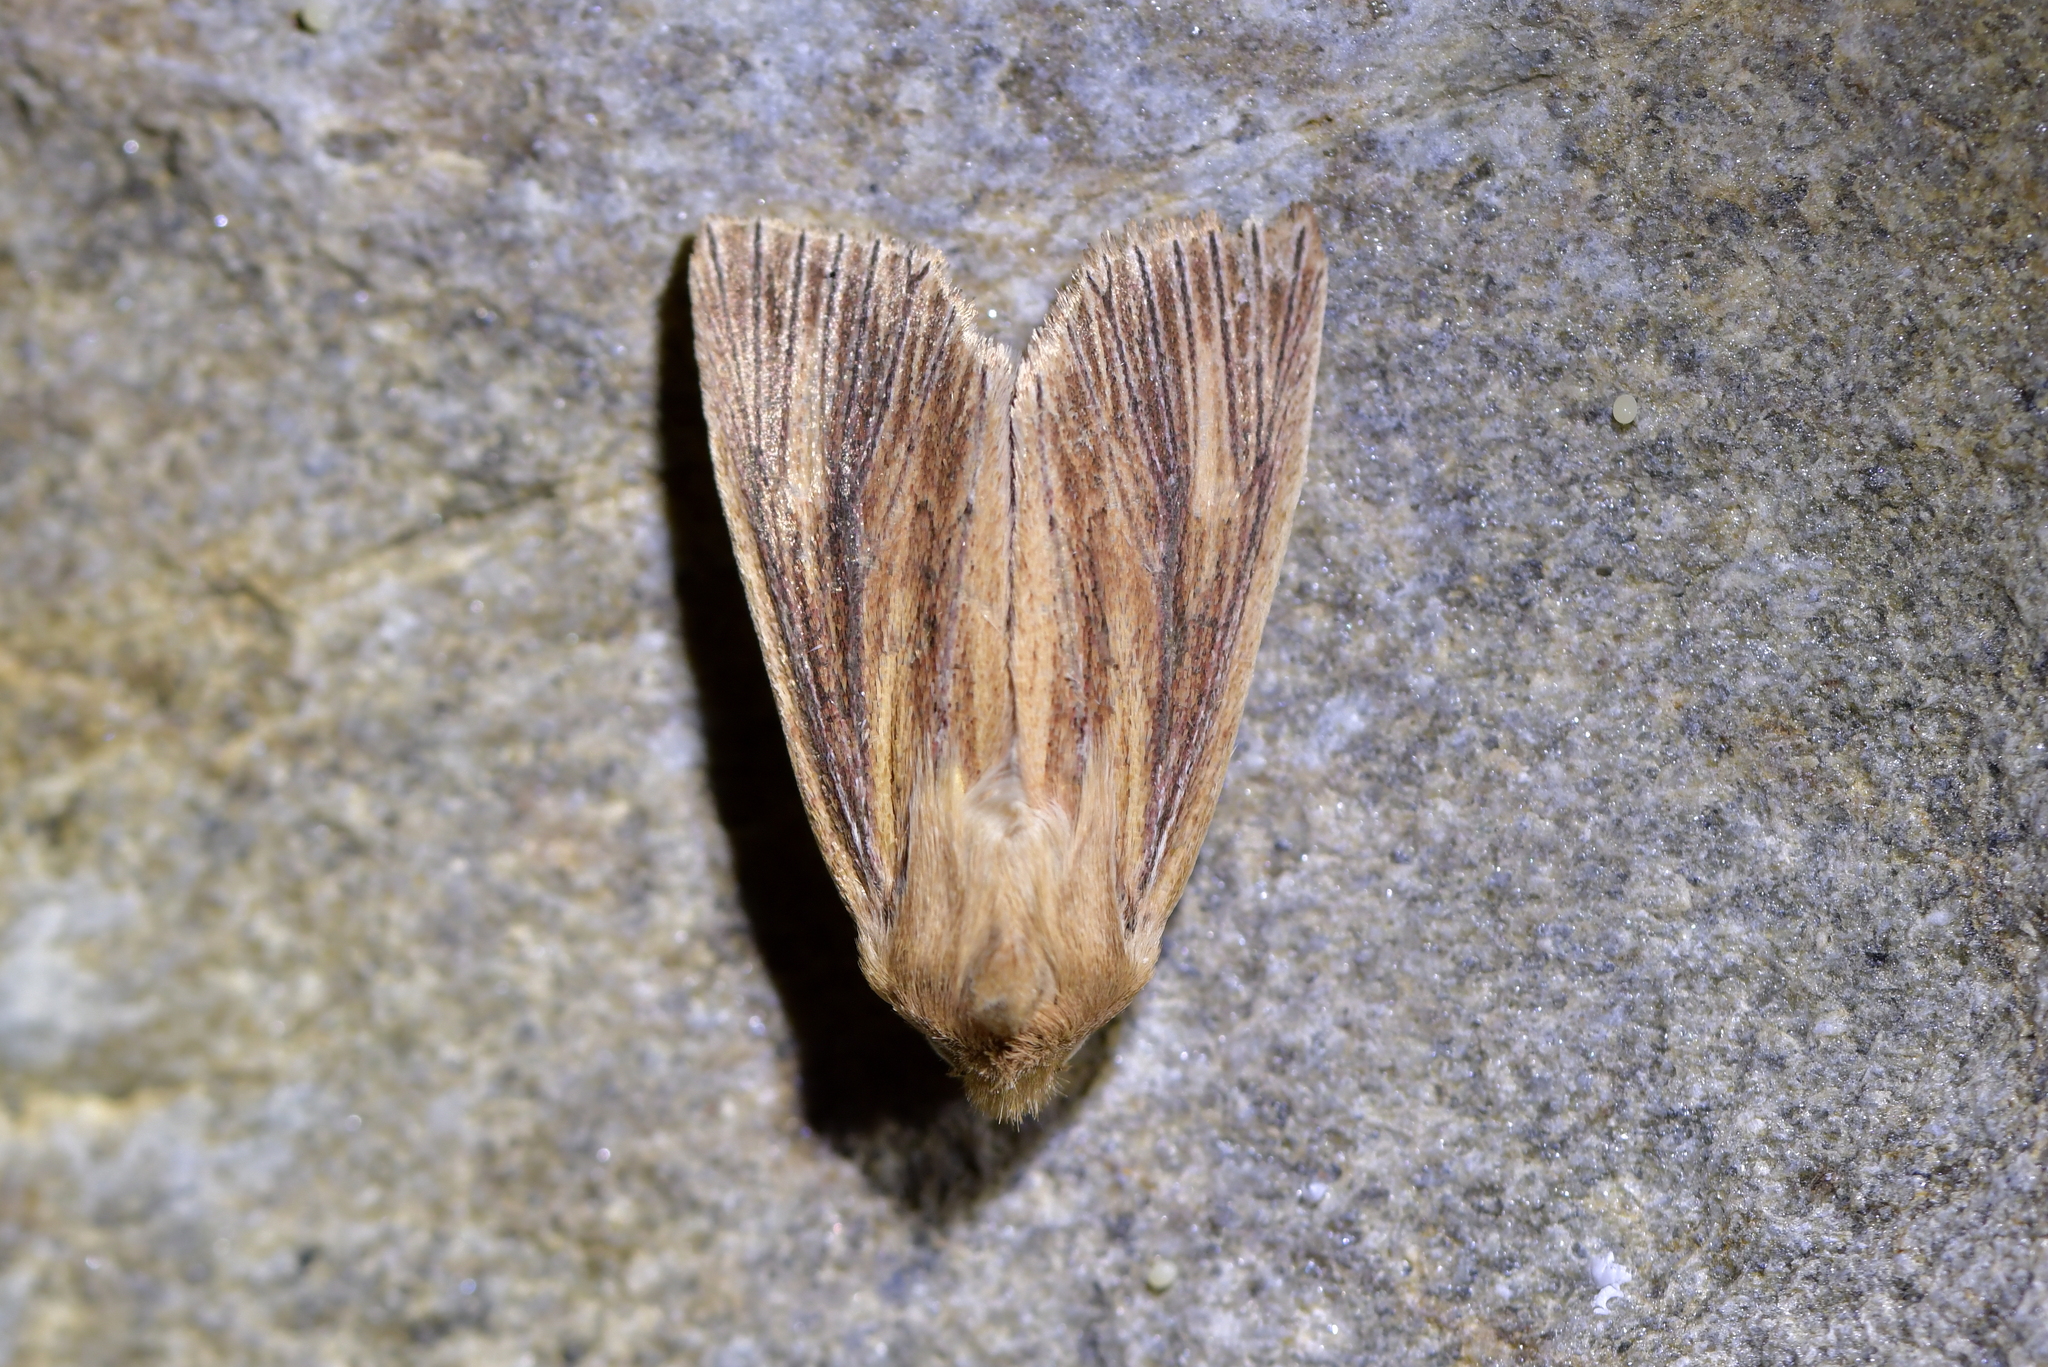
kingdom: Animalia
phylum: Arthropoda
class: Insecta
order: Lepidoptera
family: Noctuidae
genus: Ichneutica
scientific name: Ichneutica arotis
